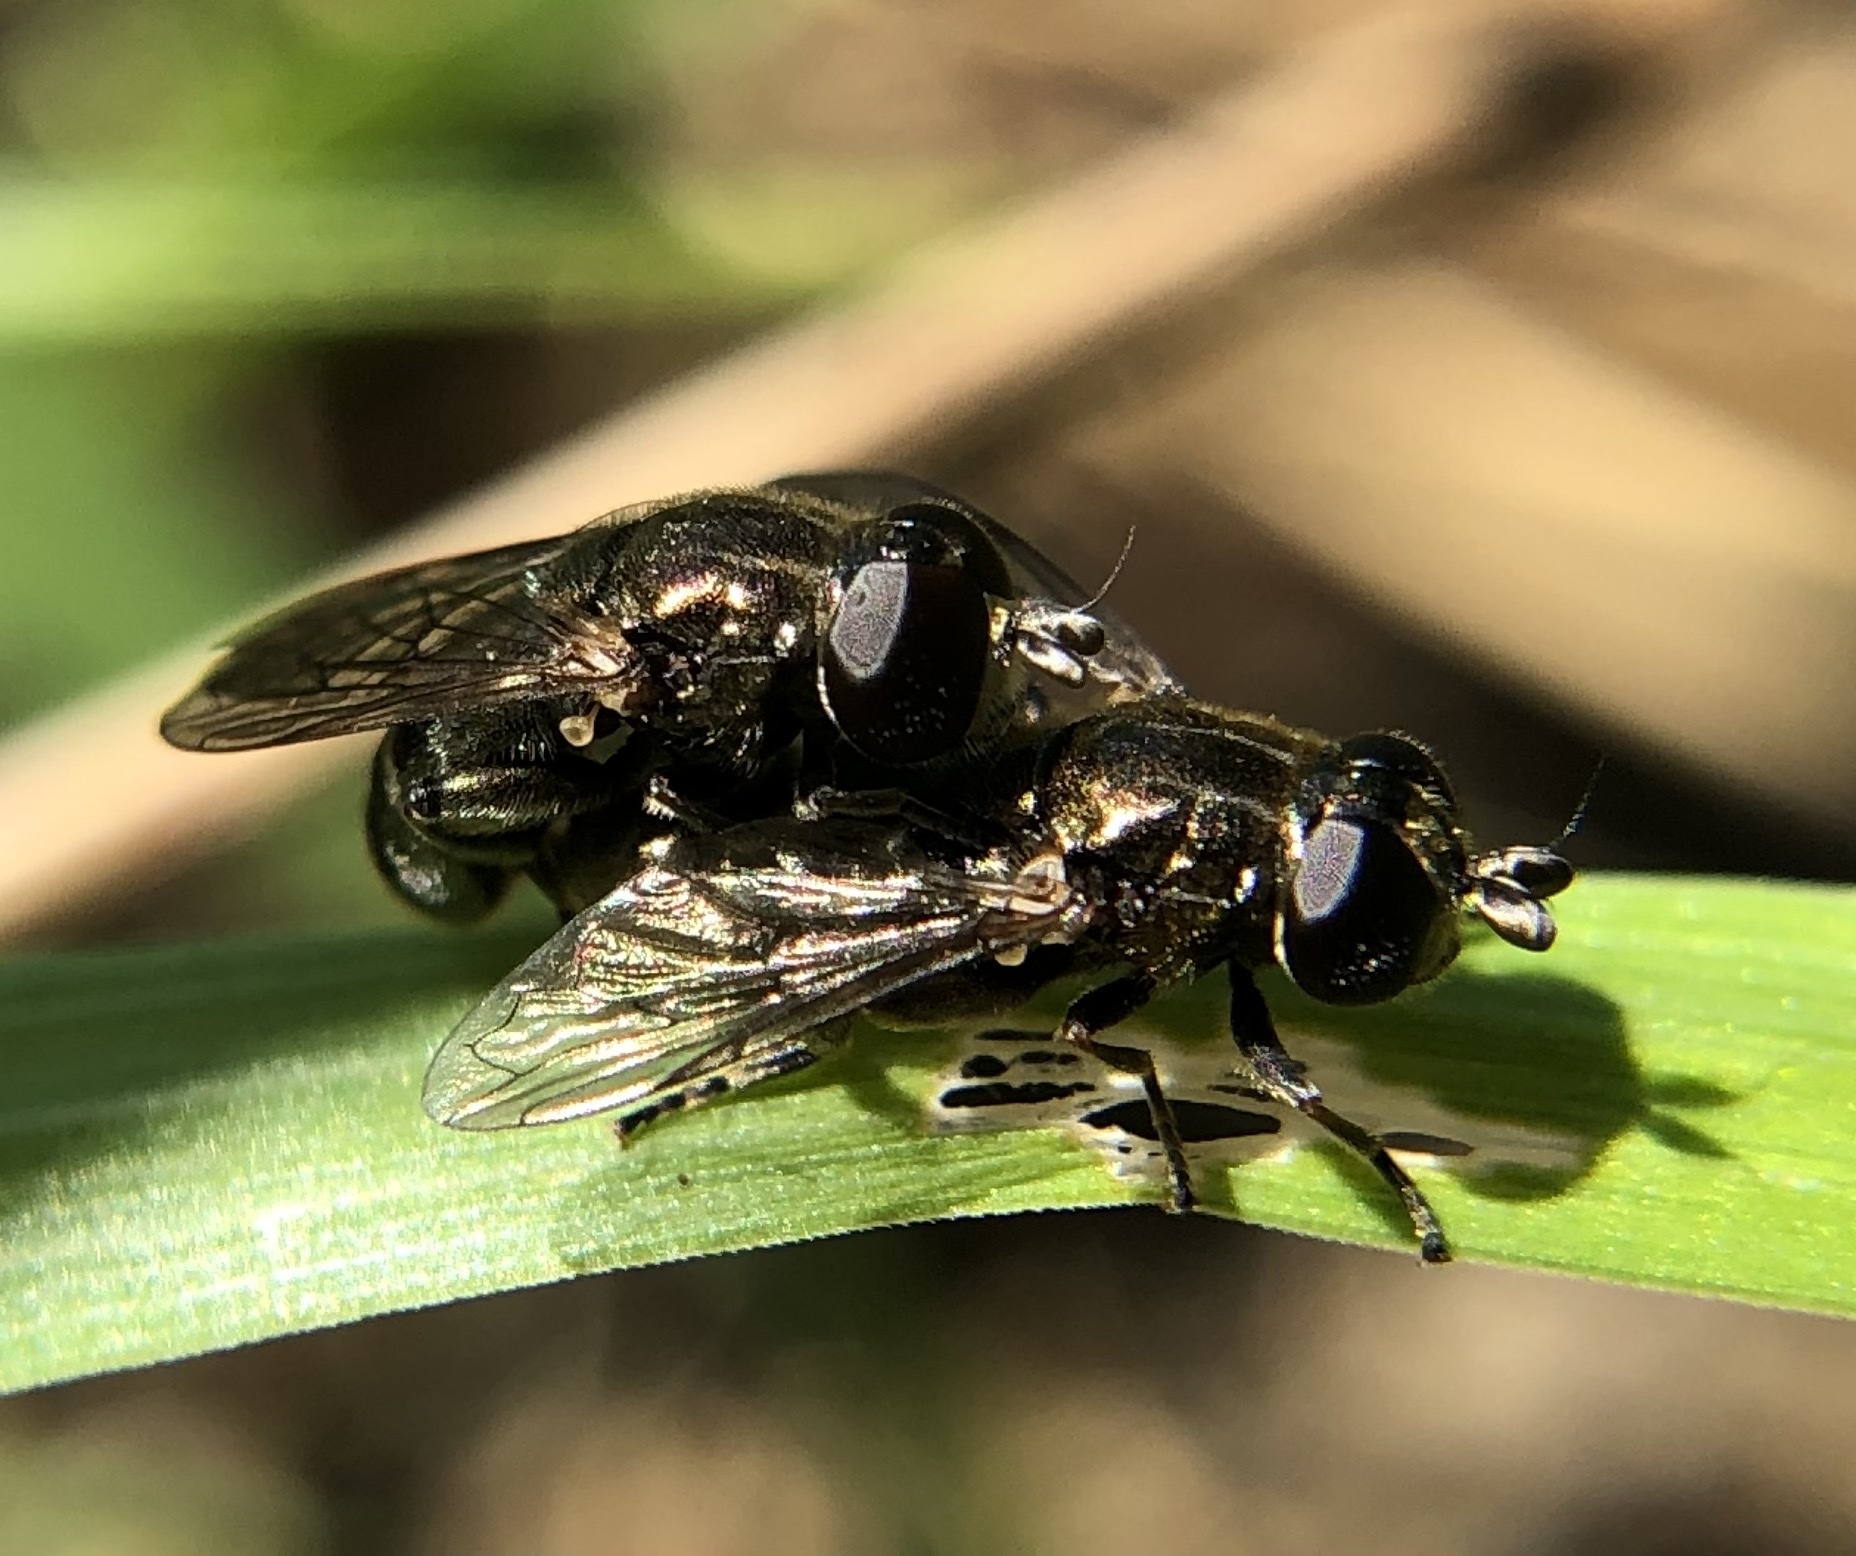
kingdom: Animalia
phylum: Arthropoda
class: Insecta
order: Diptera
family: Syrphidae
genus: Eumerus
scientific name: Eumerus
